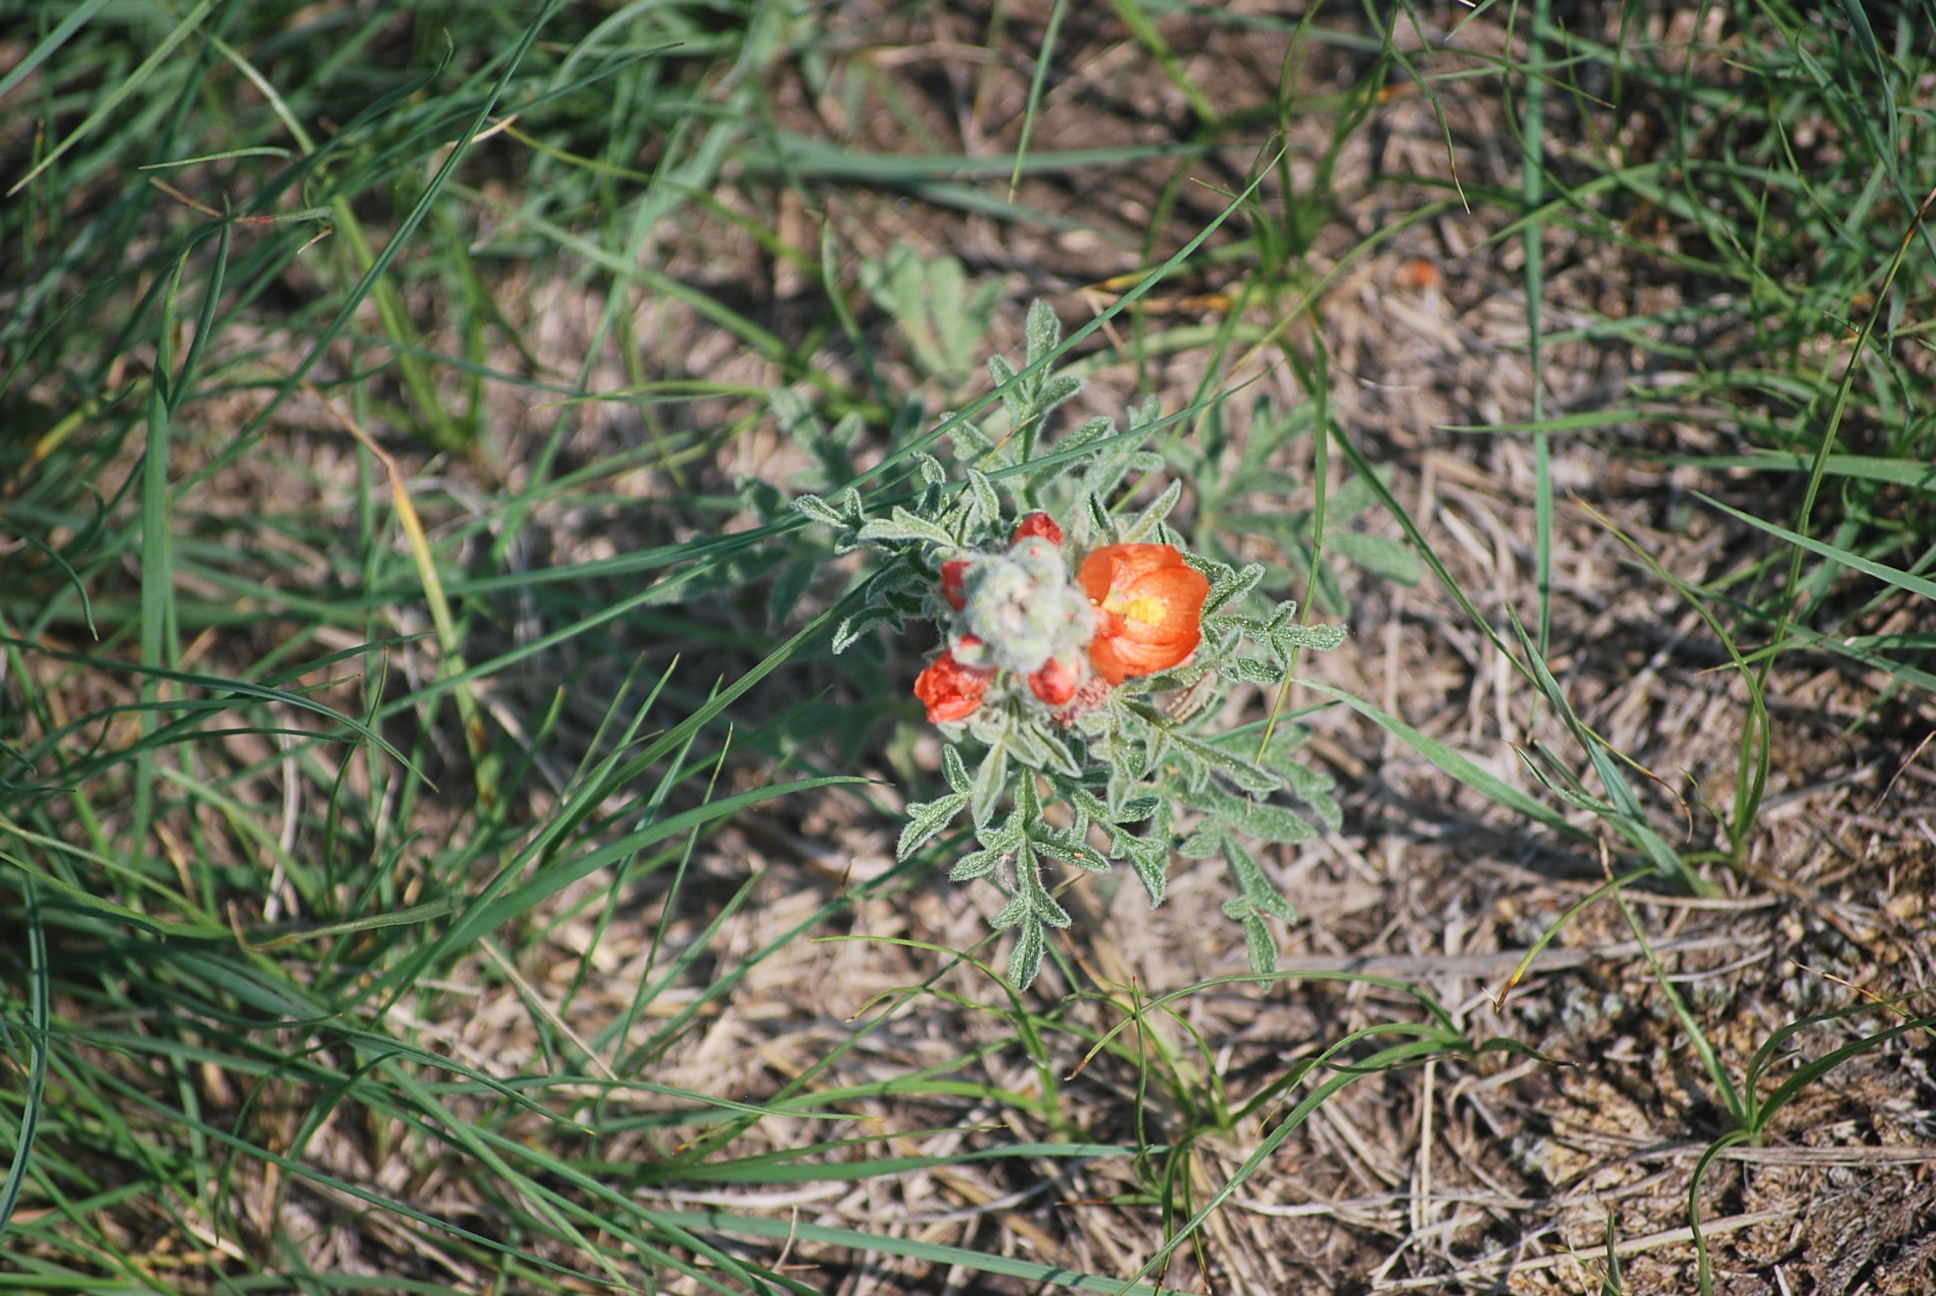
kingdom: Plantae
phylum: Tracheophyta
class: Magnoliopsida
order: Malvales
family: Malvaceae
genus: Sphaeralcea
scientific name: Sphaeralcea coccinea
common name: Moss-rose
